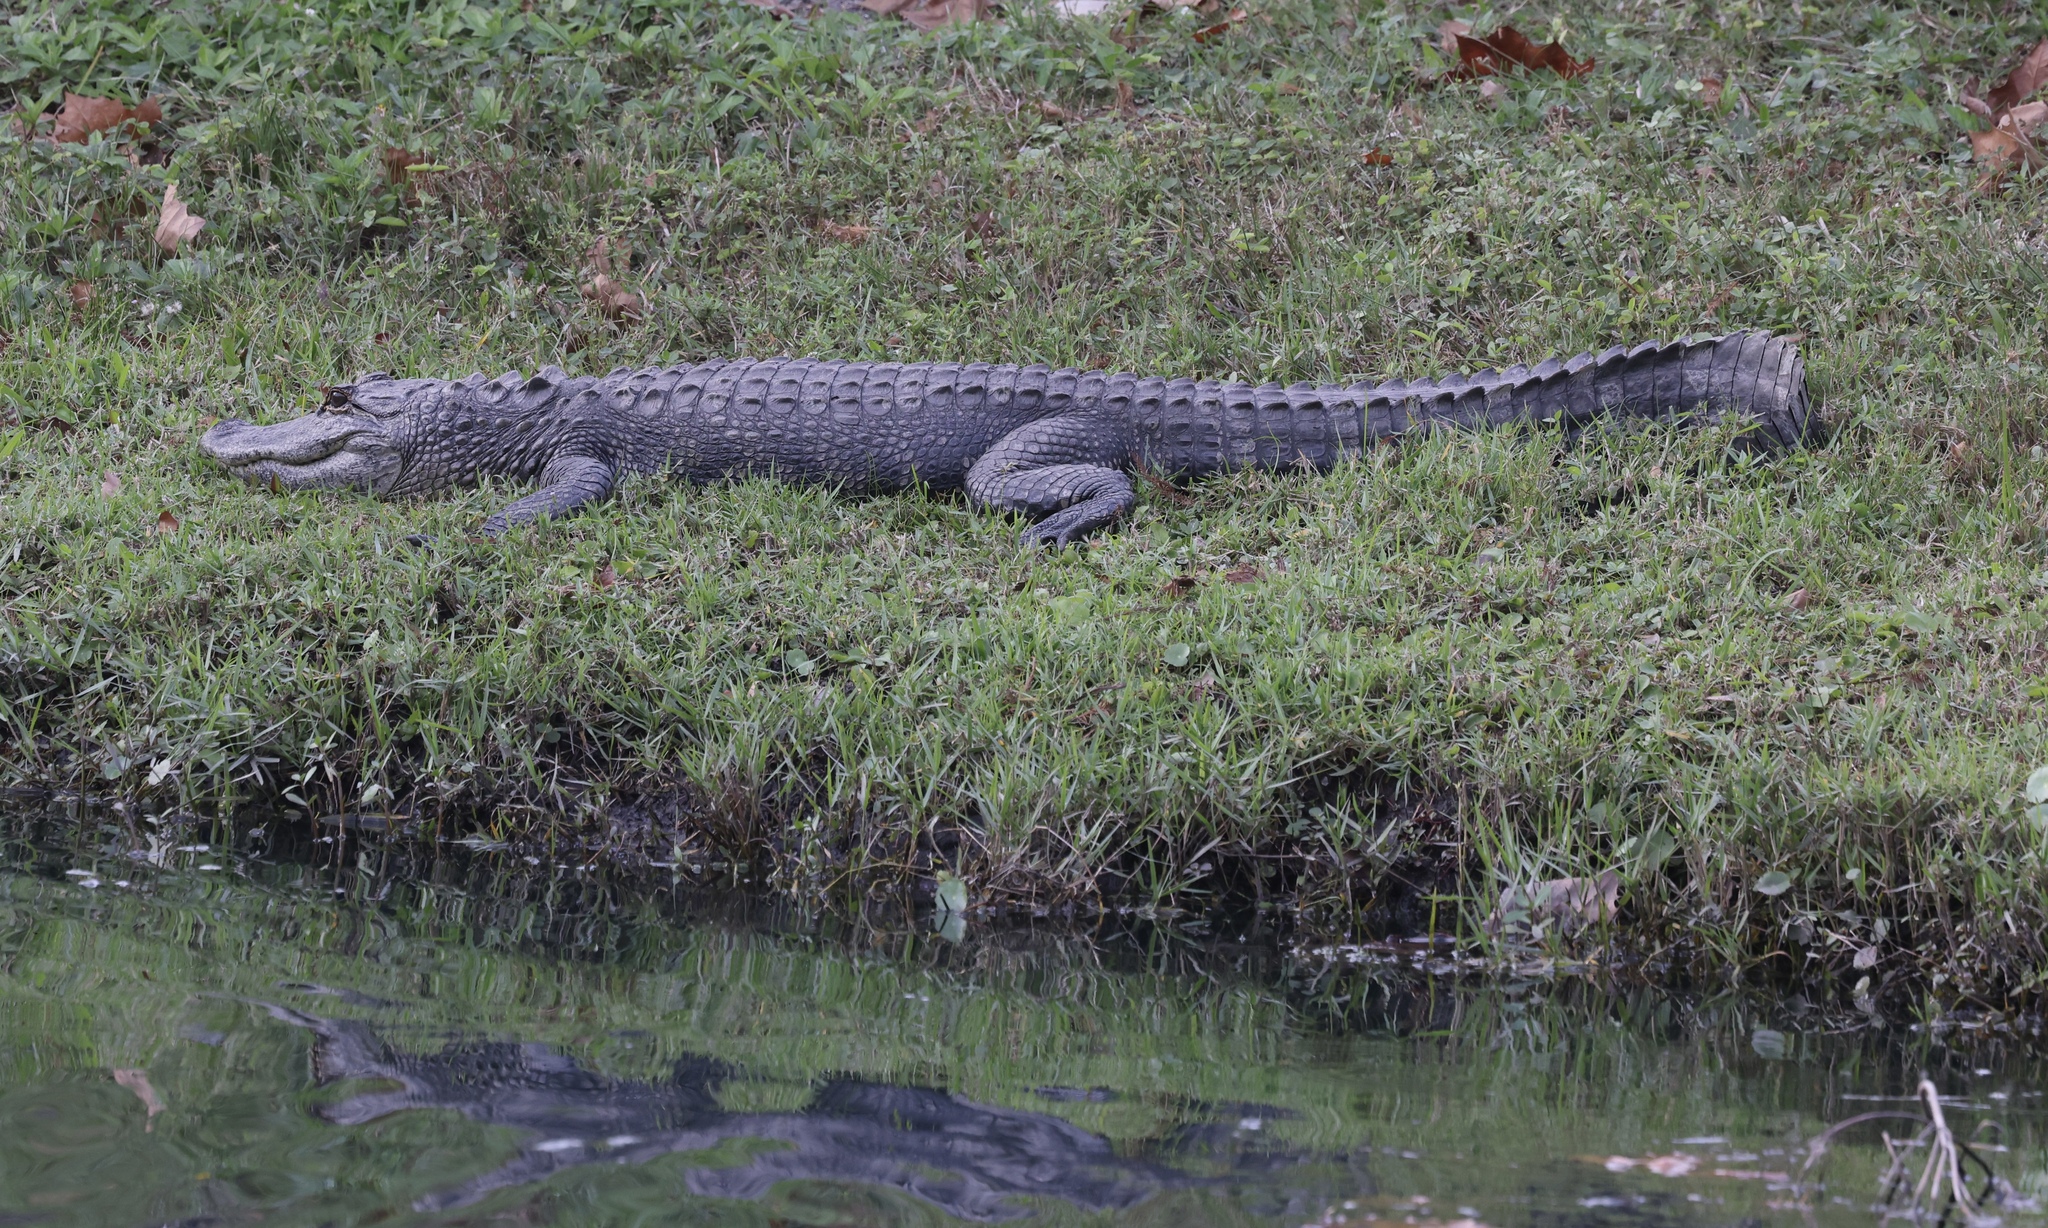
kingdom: Animalia
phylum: Chordata
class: Crocodylia
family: Alligatoridae
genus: Alligator
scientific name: Alligator mississippiensis
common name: American alligator
